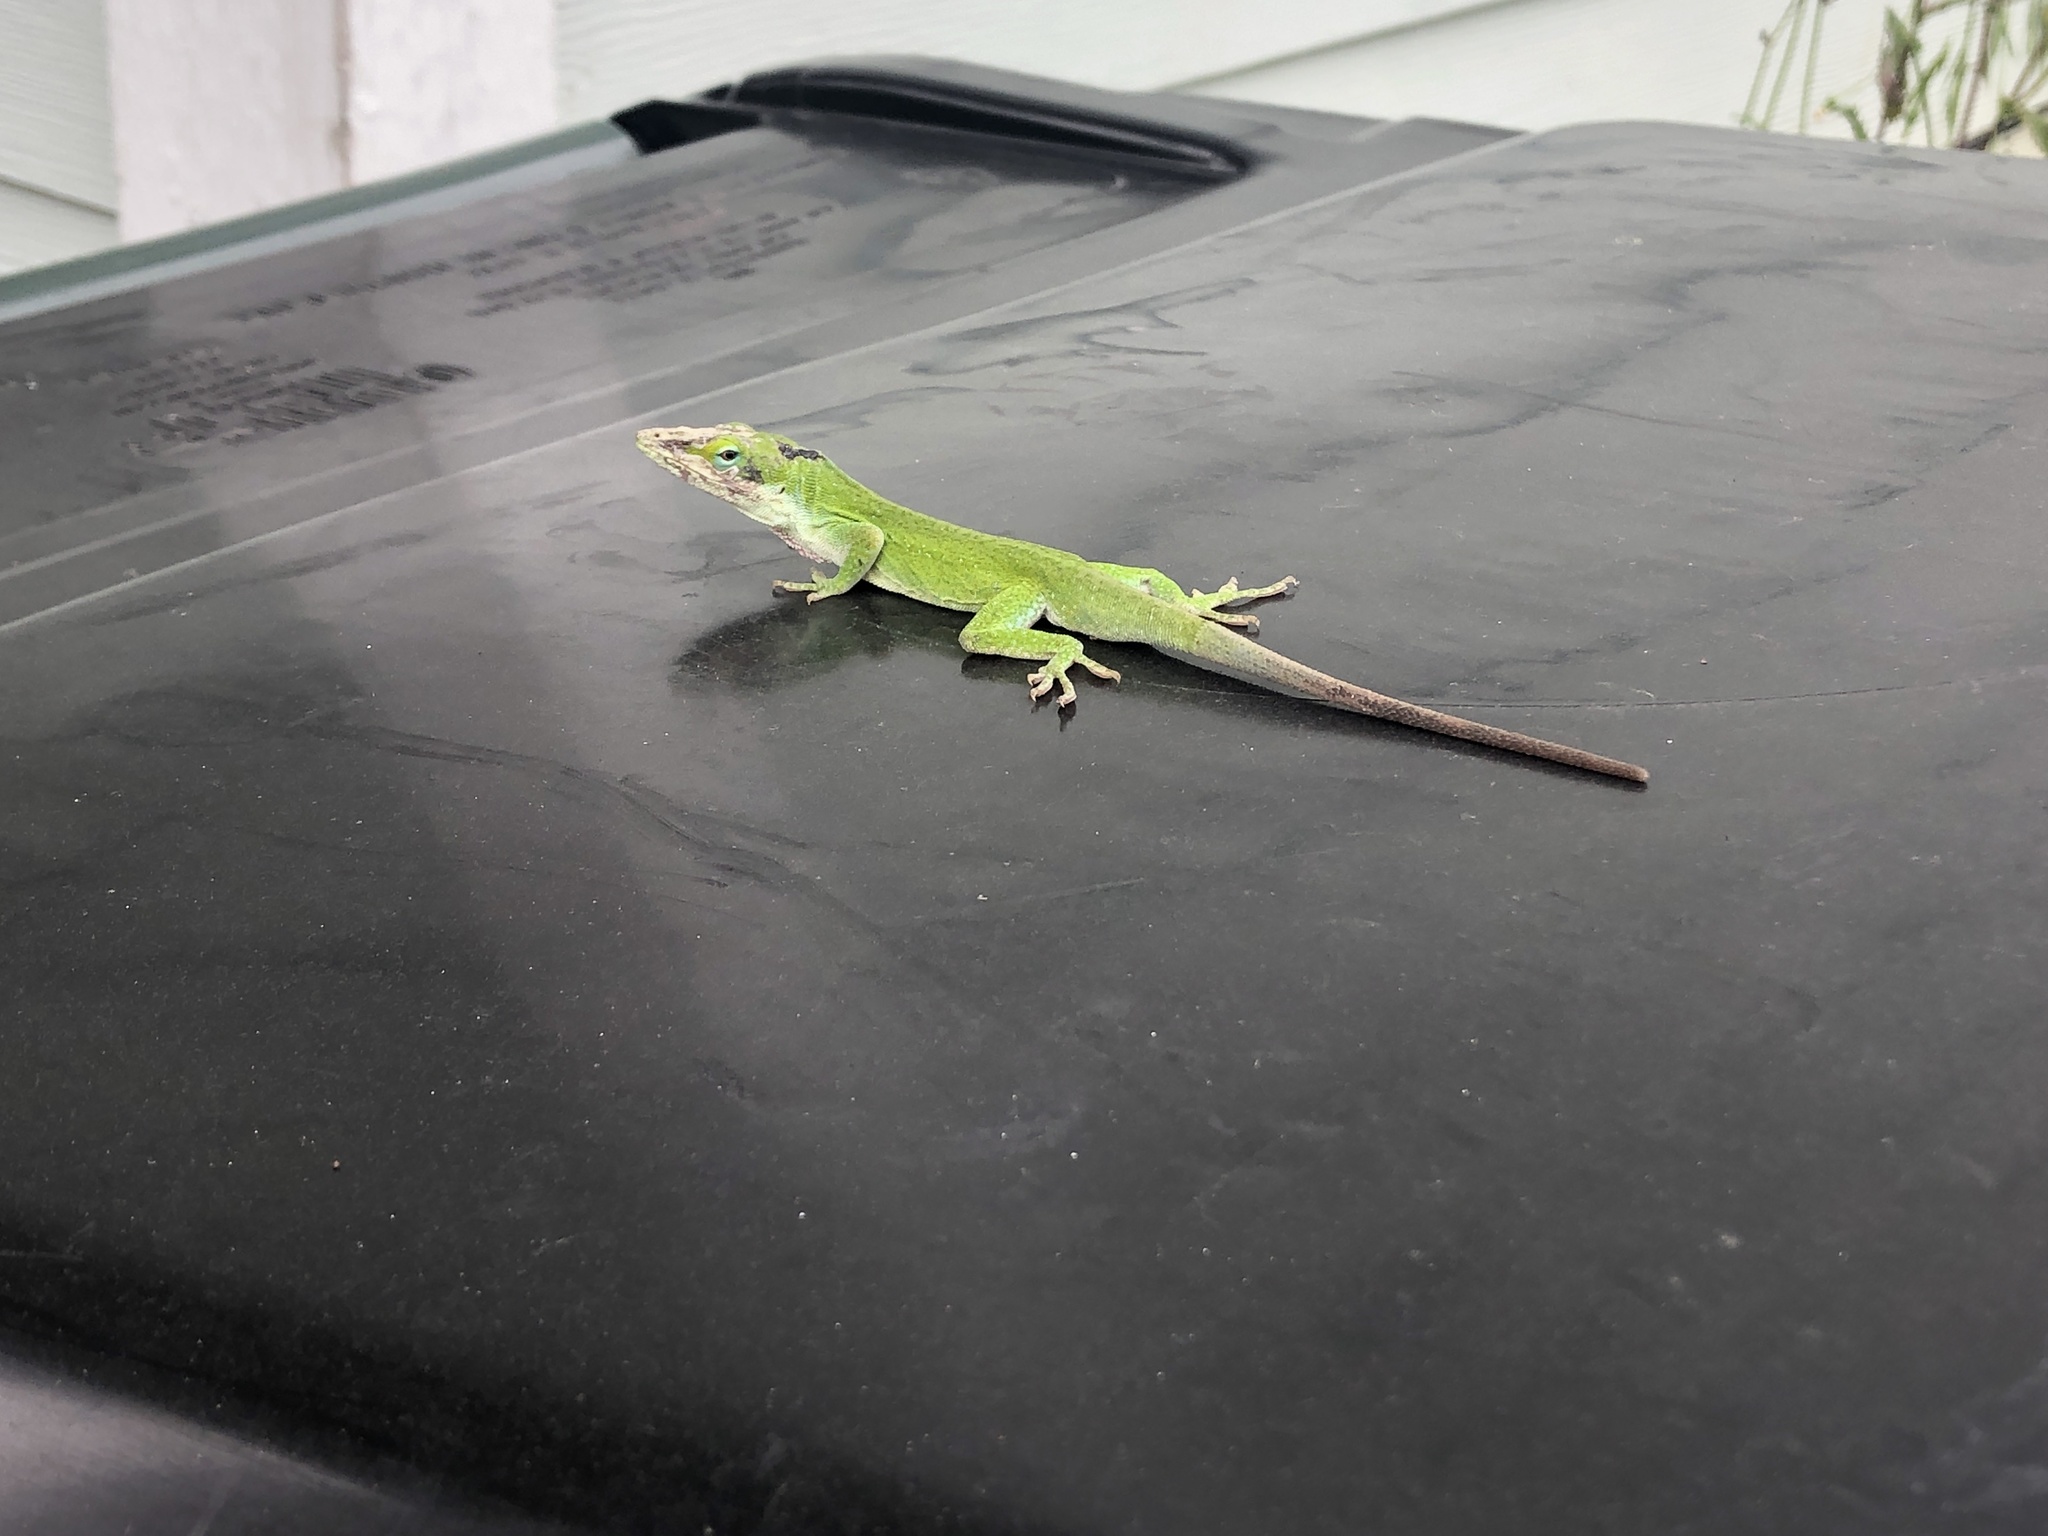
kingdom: Animalia
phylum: Chordata
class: Squamata
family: Dactyloidae
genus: Anolis
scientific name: Anolis carolinensis
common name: Green anole
